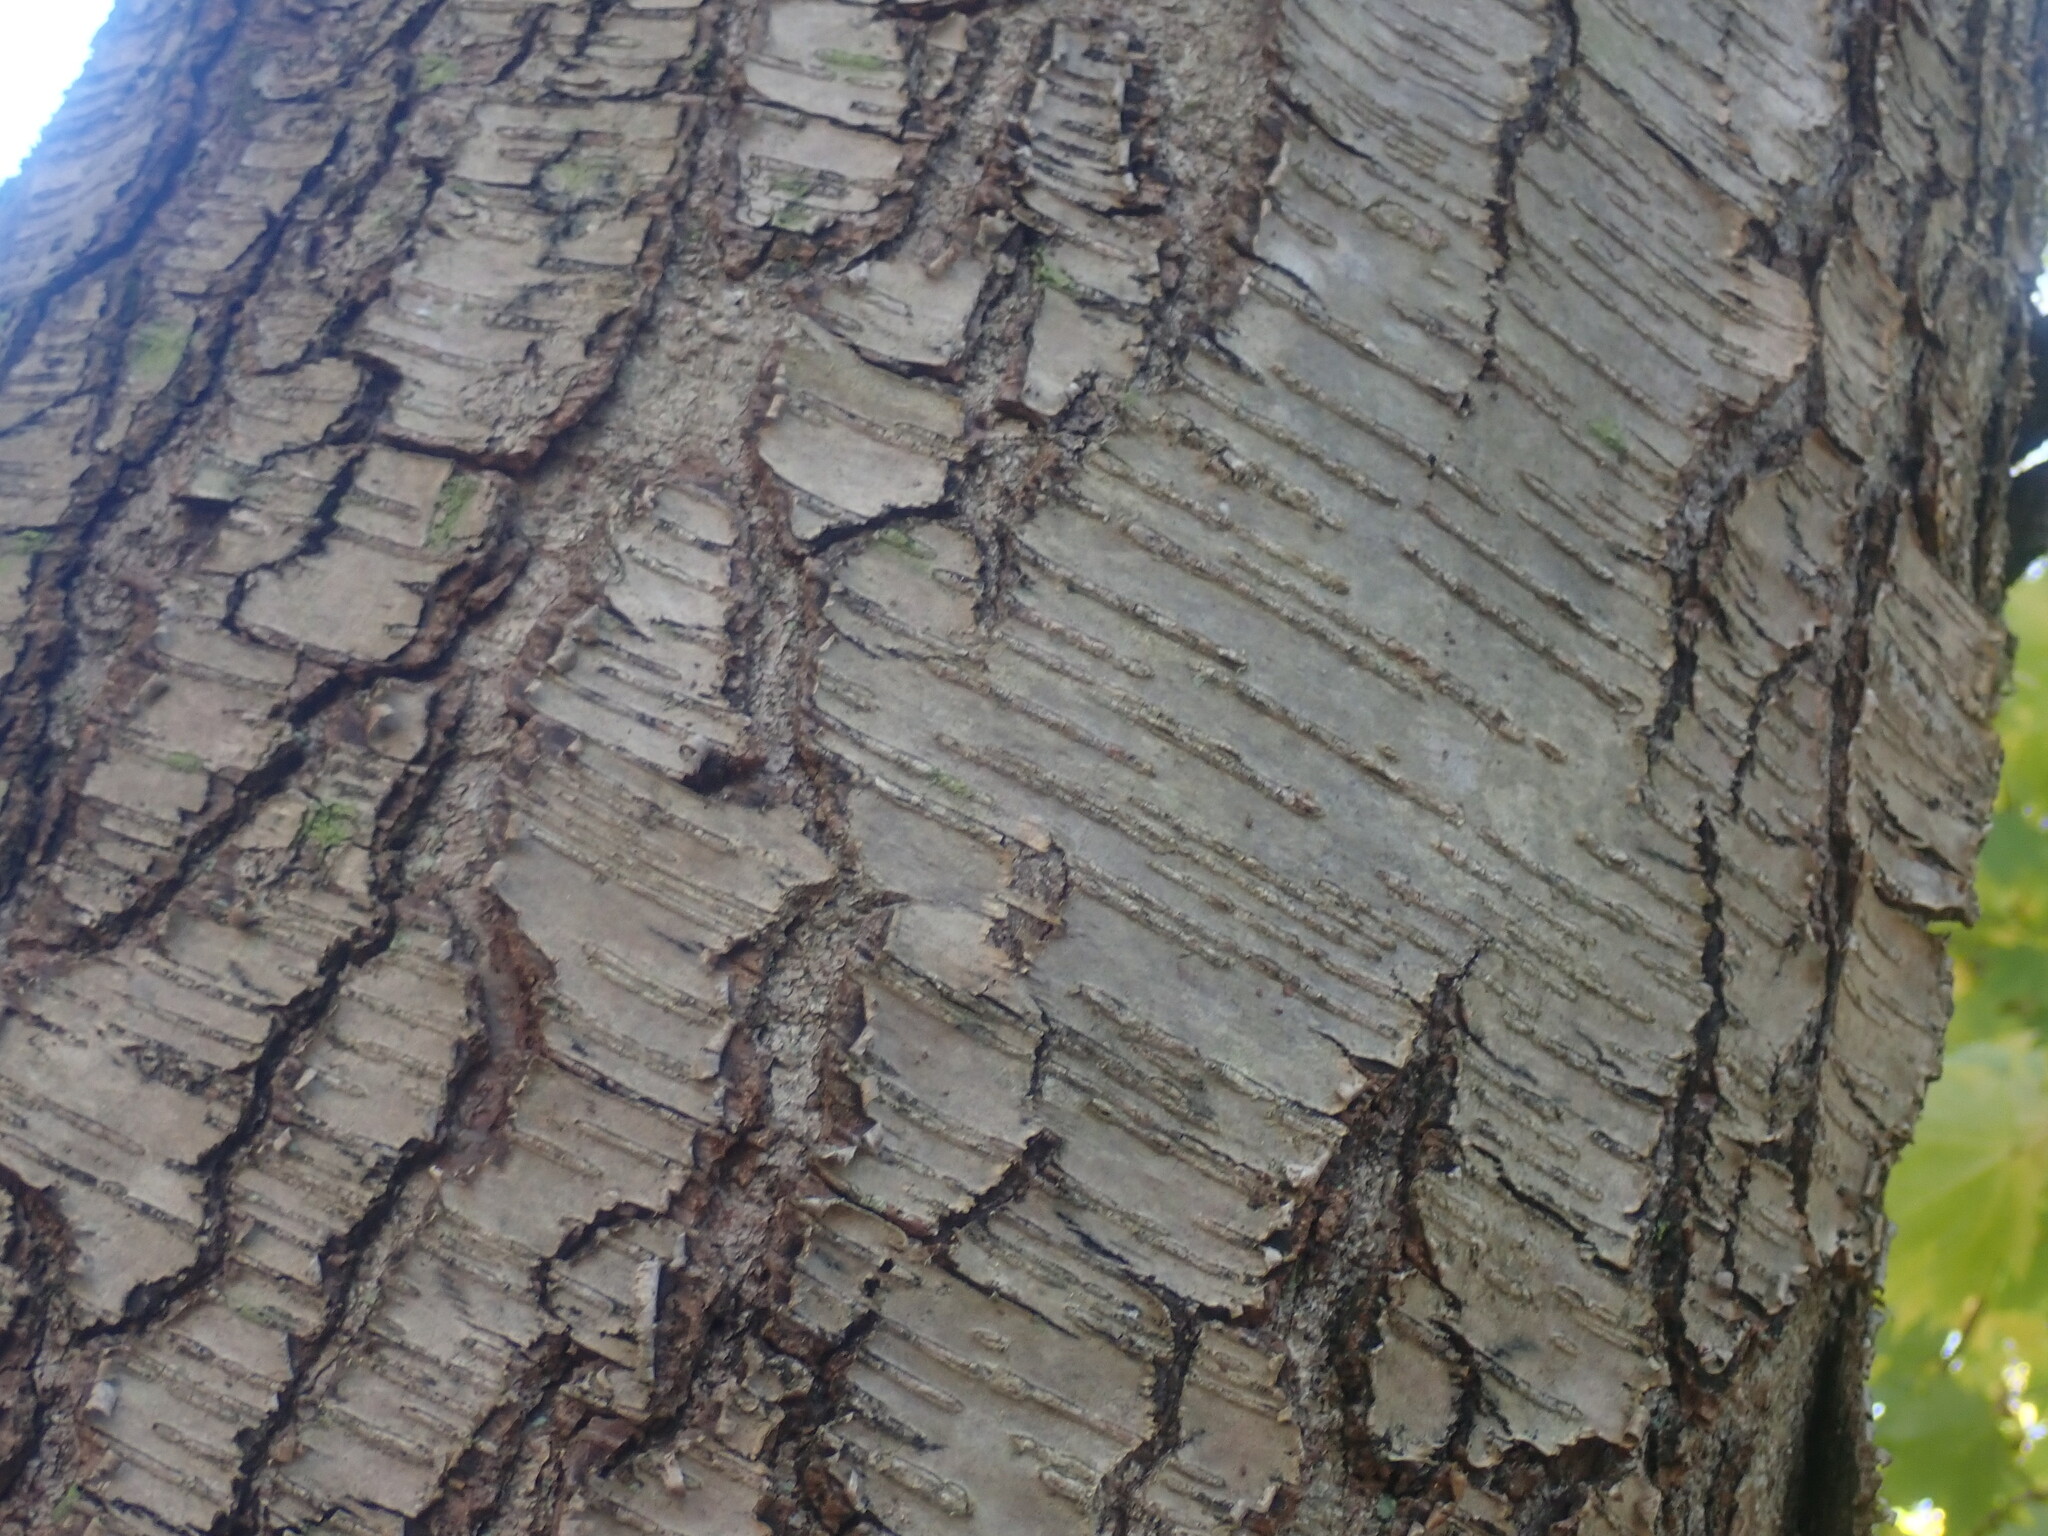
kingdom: Plantae
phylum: Tracheophyta
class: Magnoliopsida
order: Fagales
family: Betulaceae
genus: Betula
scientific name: Betula lenta
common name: Black birch
